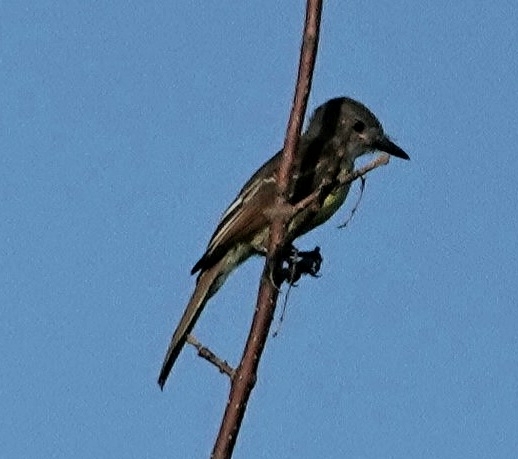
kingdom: Animalia
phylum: Chordata
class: Aves
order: Passeriformes
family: Tyrannidae
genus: Myiarchus
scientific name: Myiarchus crinitus
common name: Great crested flycatcher
